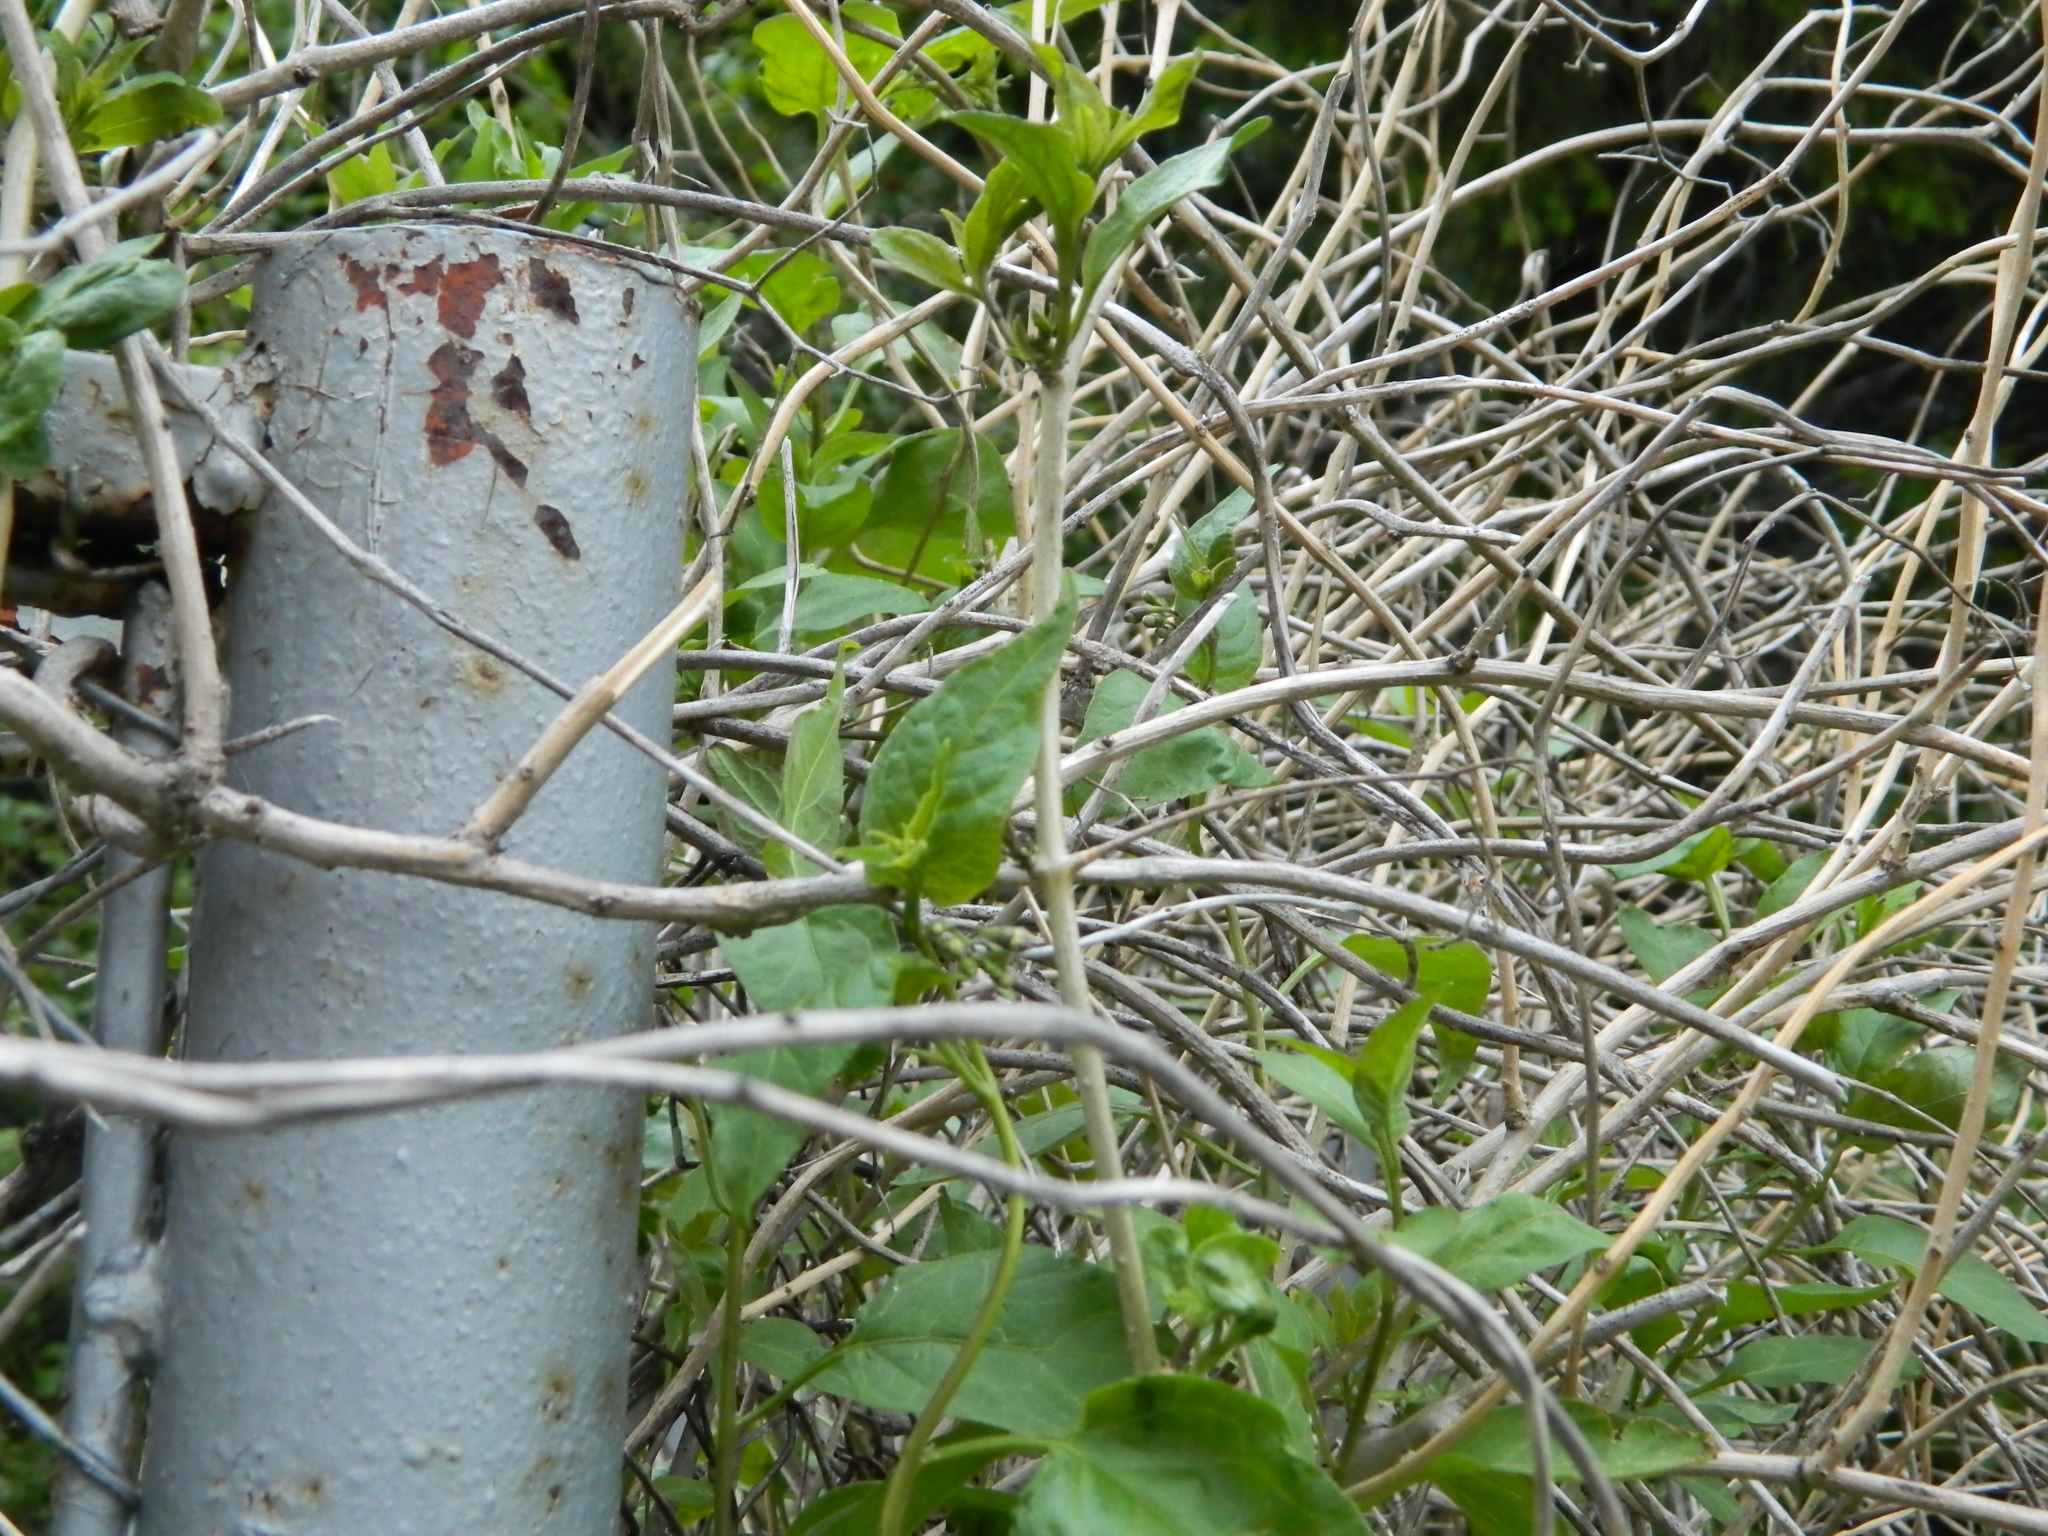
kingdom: Plantae
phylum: Tracheophyta
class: Magnoliopsida
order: Solanales
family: Solanaceae
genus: Solanum
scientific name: Solanum dulcamara
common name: Climbing nightshade
